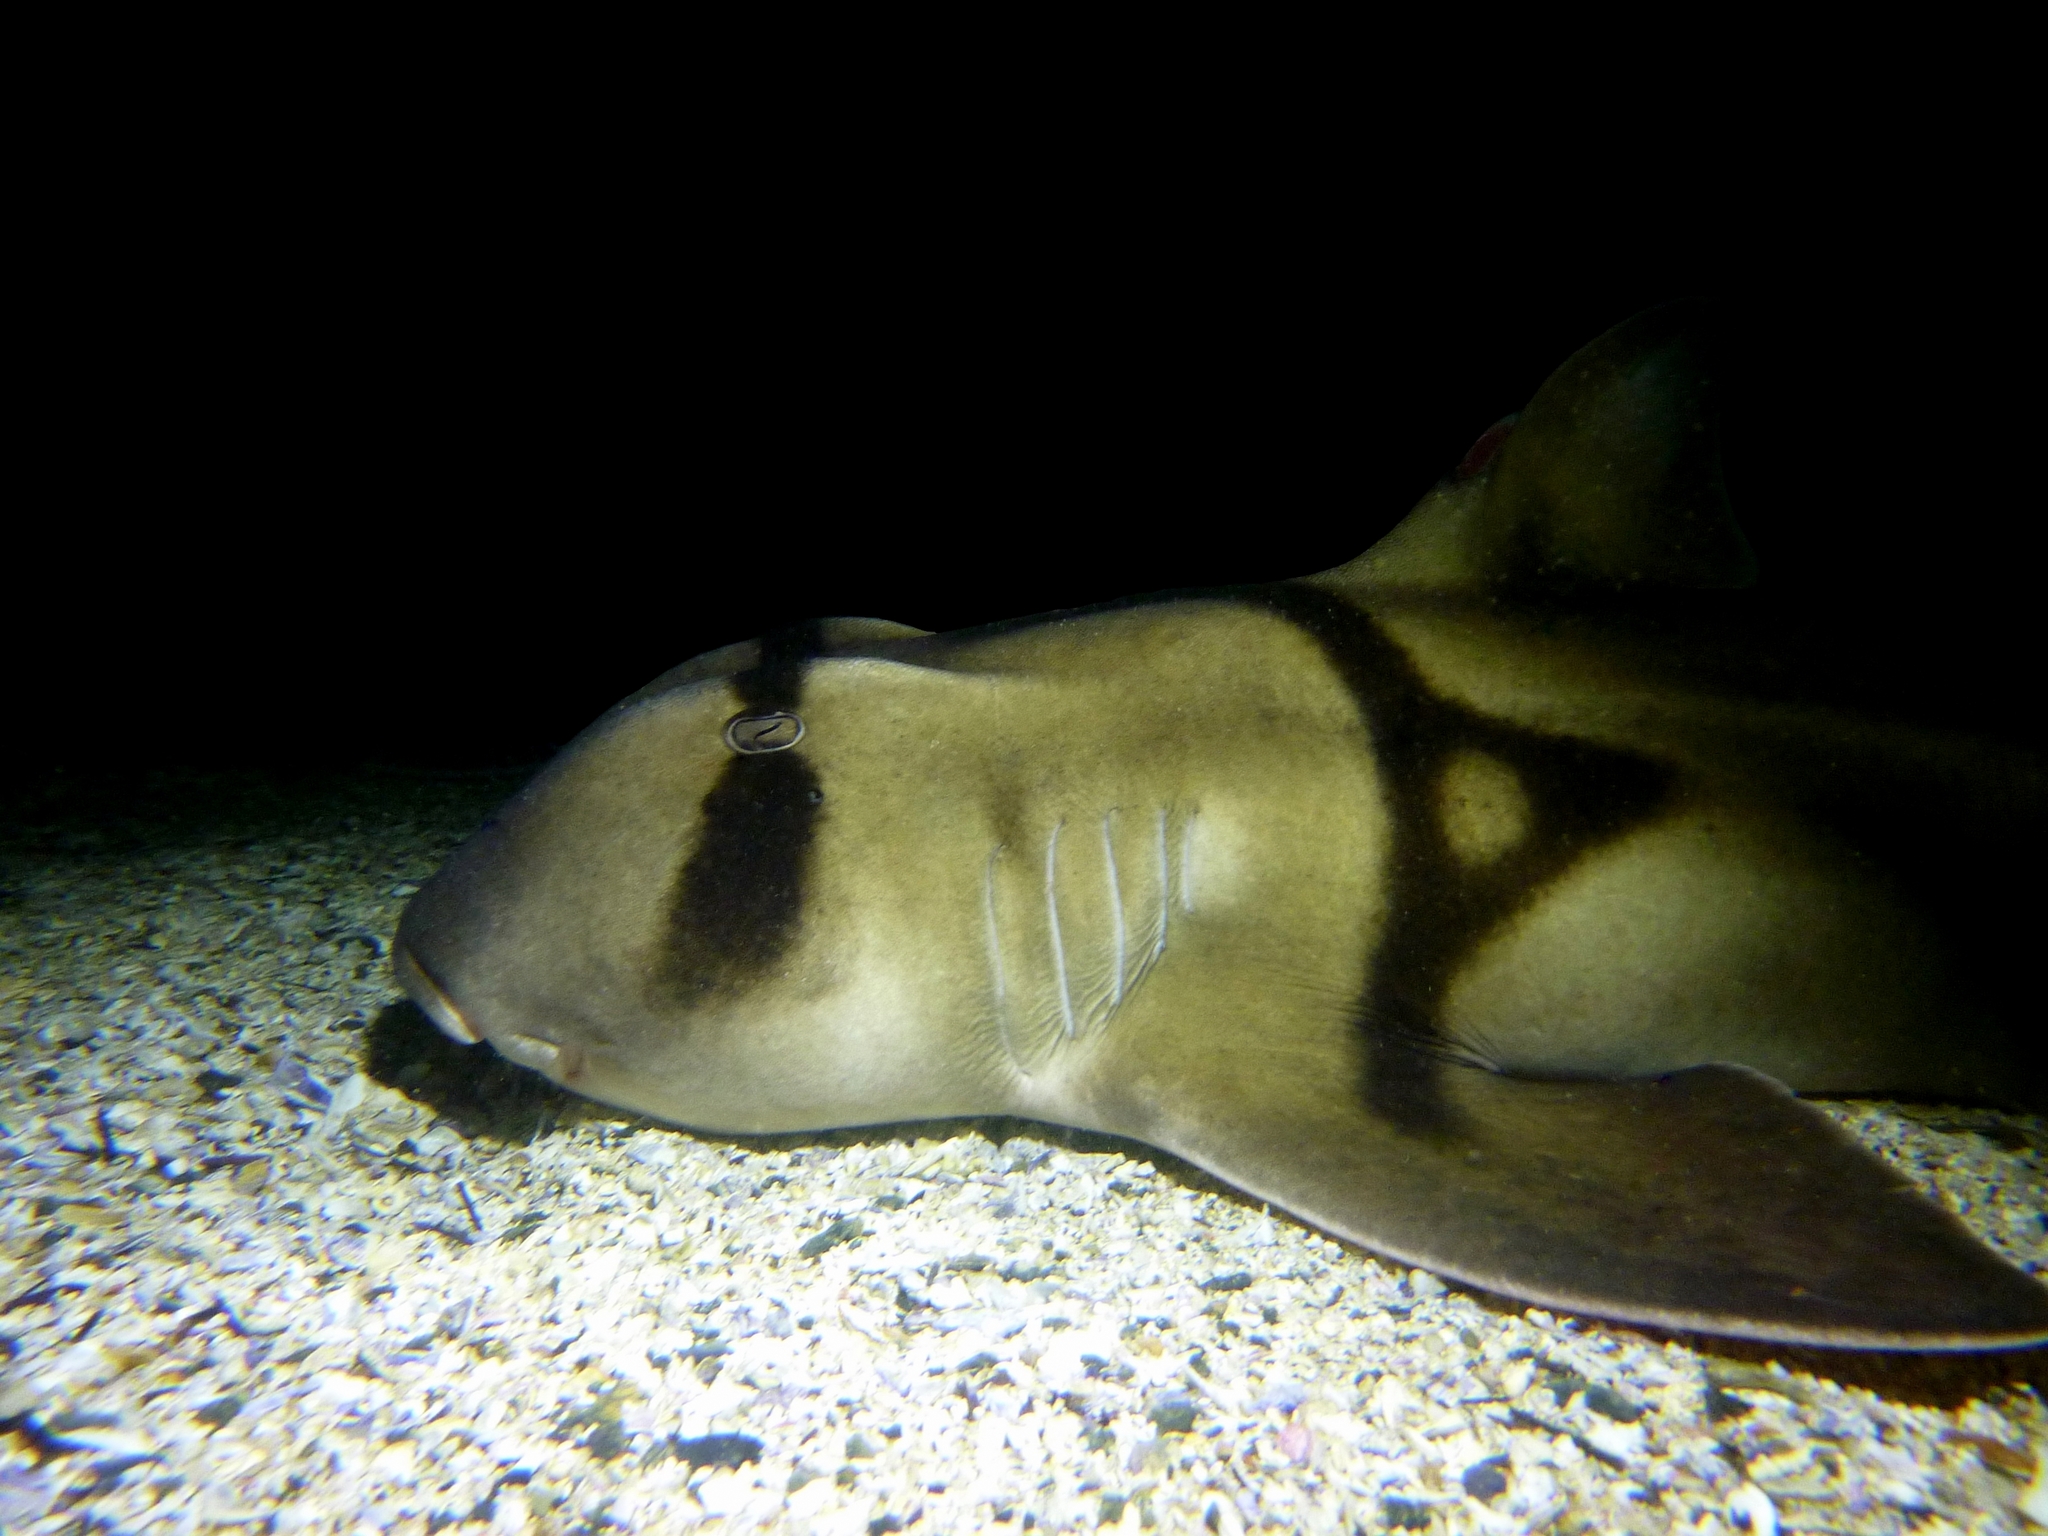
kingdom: Animalia
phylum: Chordata
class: Elasmobranchii
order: Heterodontiformes
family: Heterodontidae
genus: Heterodontus
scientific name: Heterodontus portusjacksoni
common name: Port jackson shark
